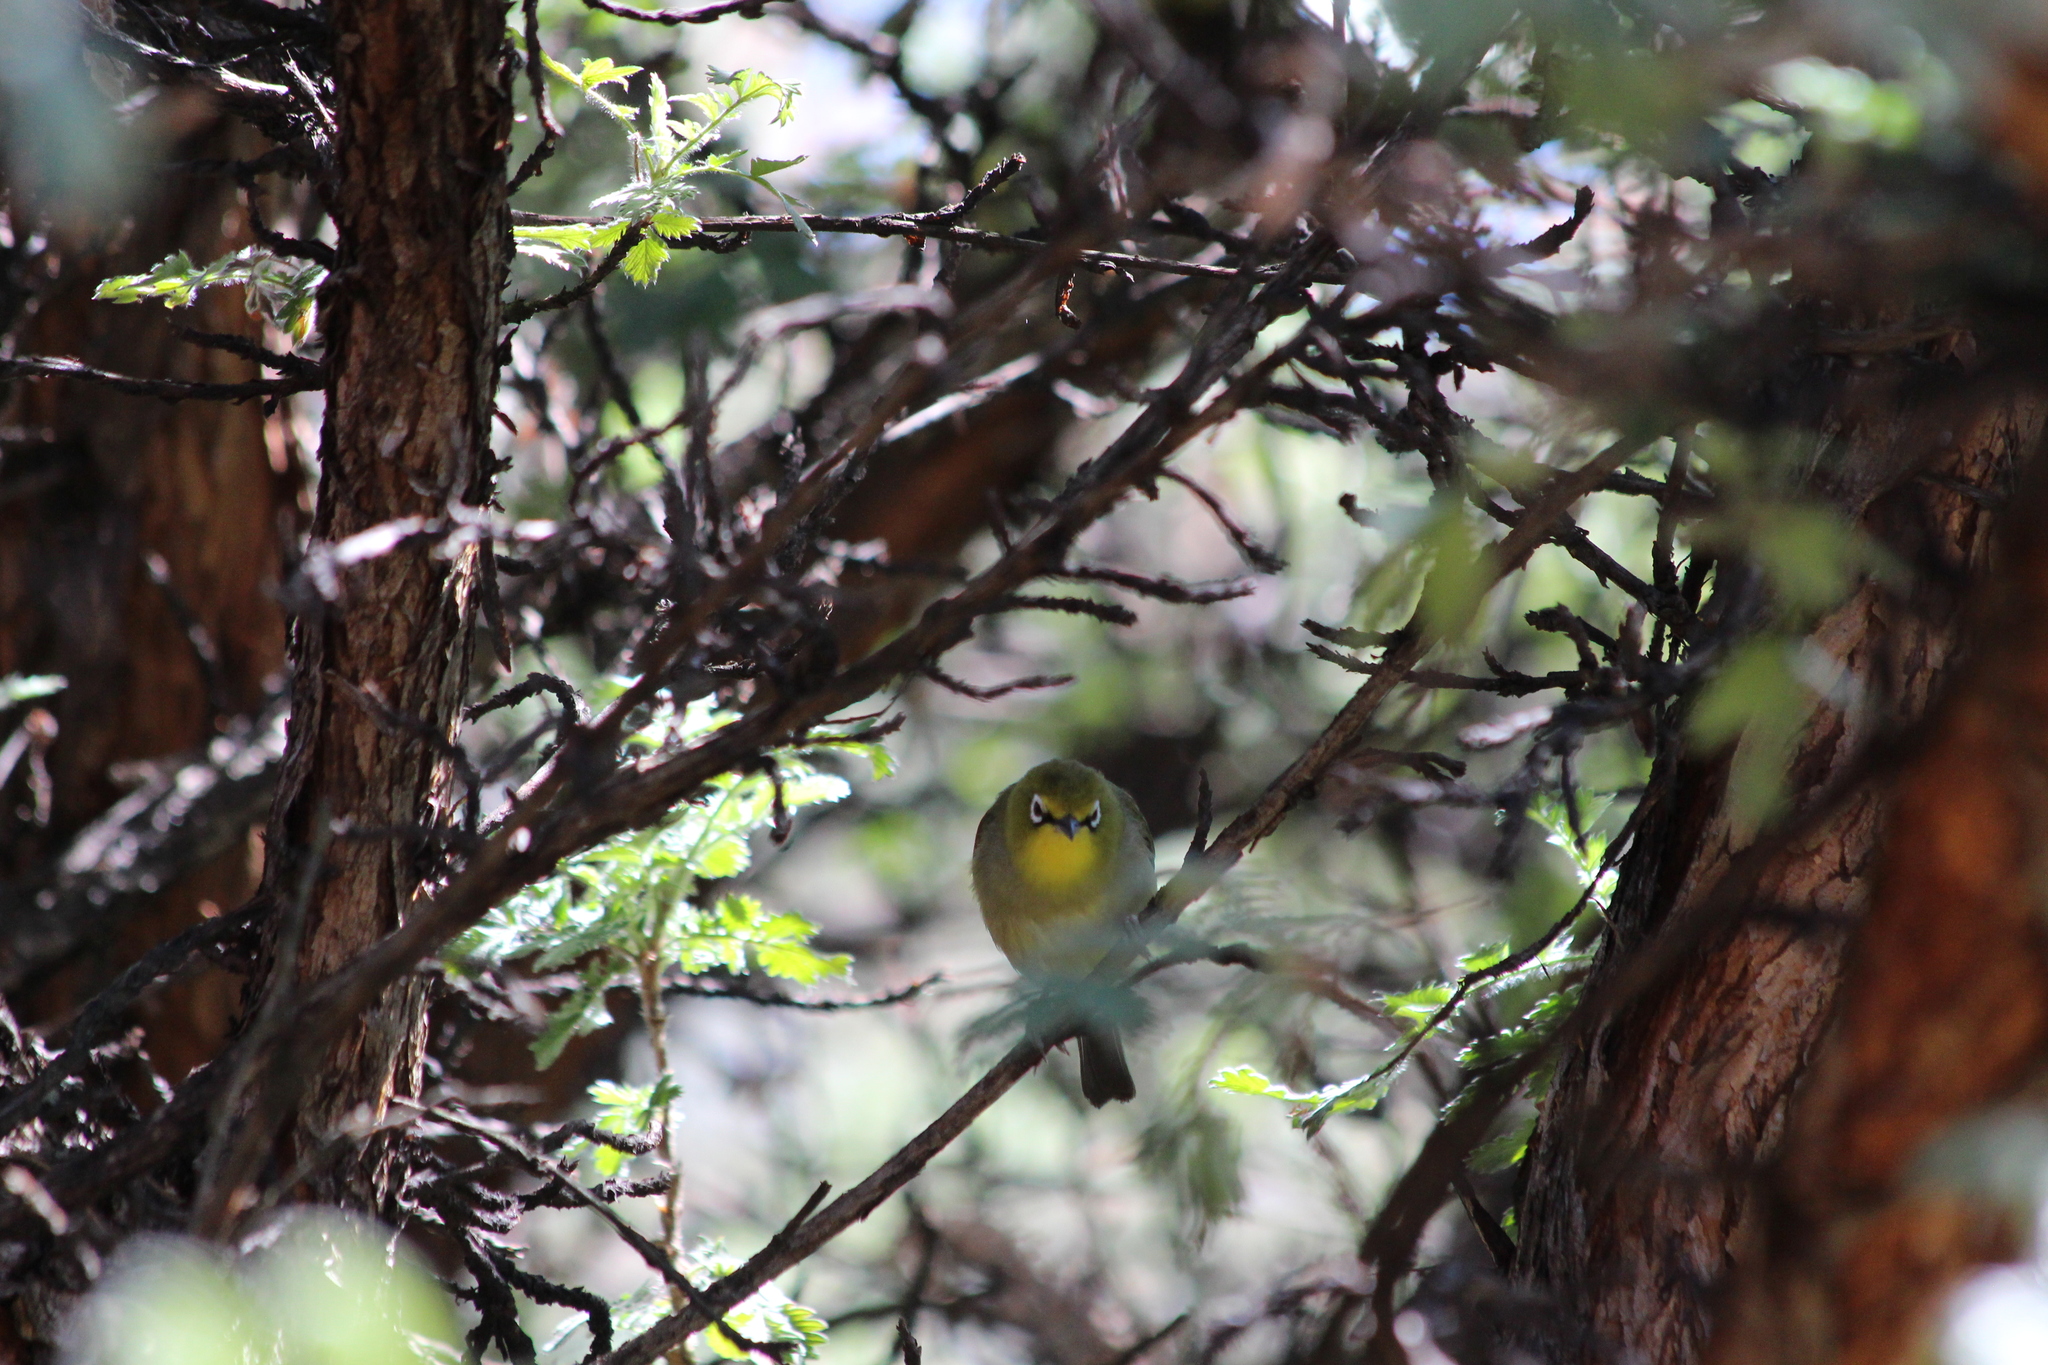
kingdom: Animalia
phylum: Chordata
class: Aves
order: Passeriformes
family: Zosteropidae
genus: Zosterops
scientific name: Zosterops virens
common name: Cape white-eye
